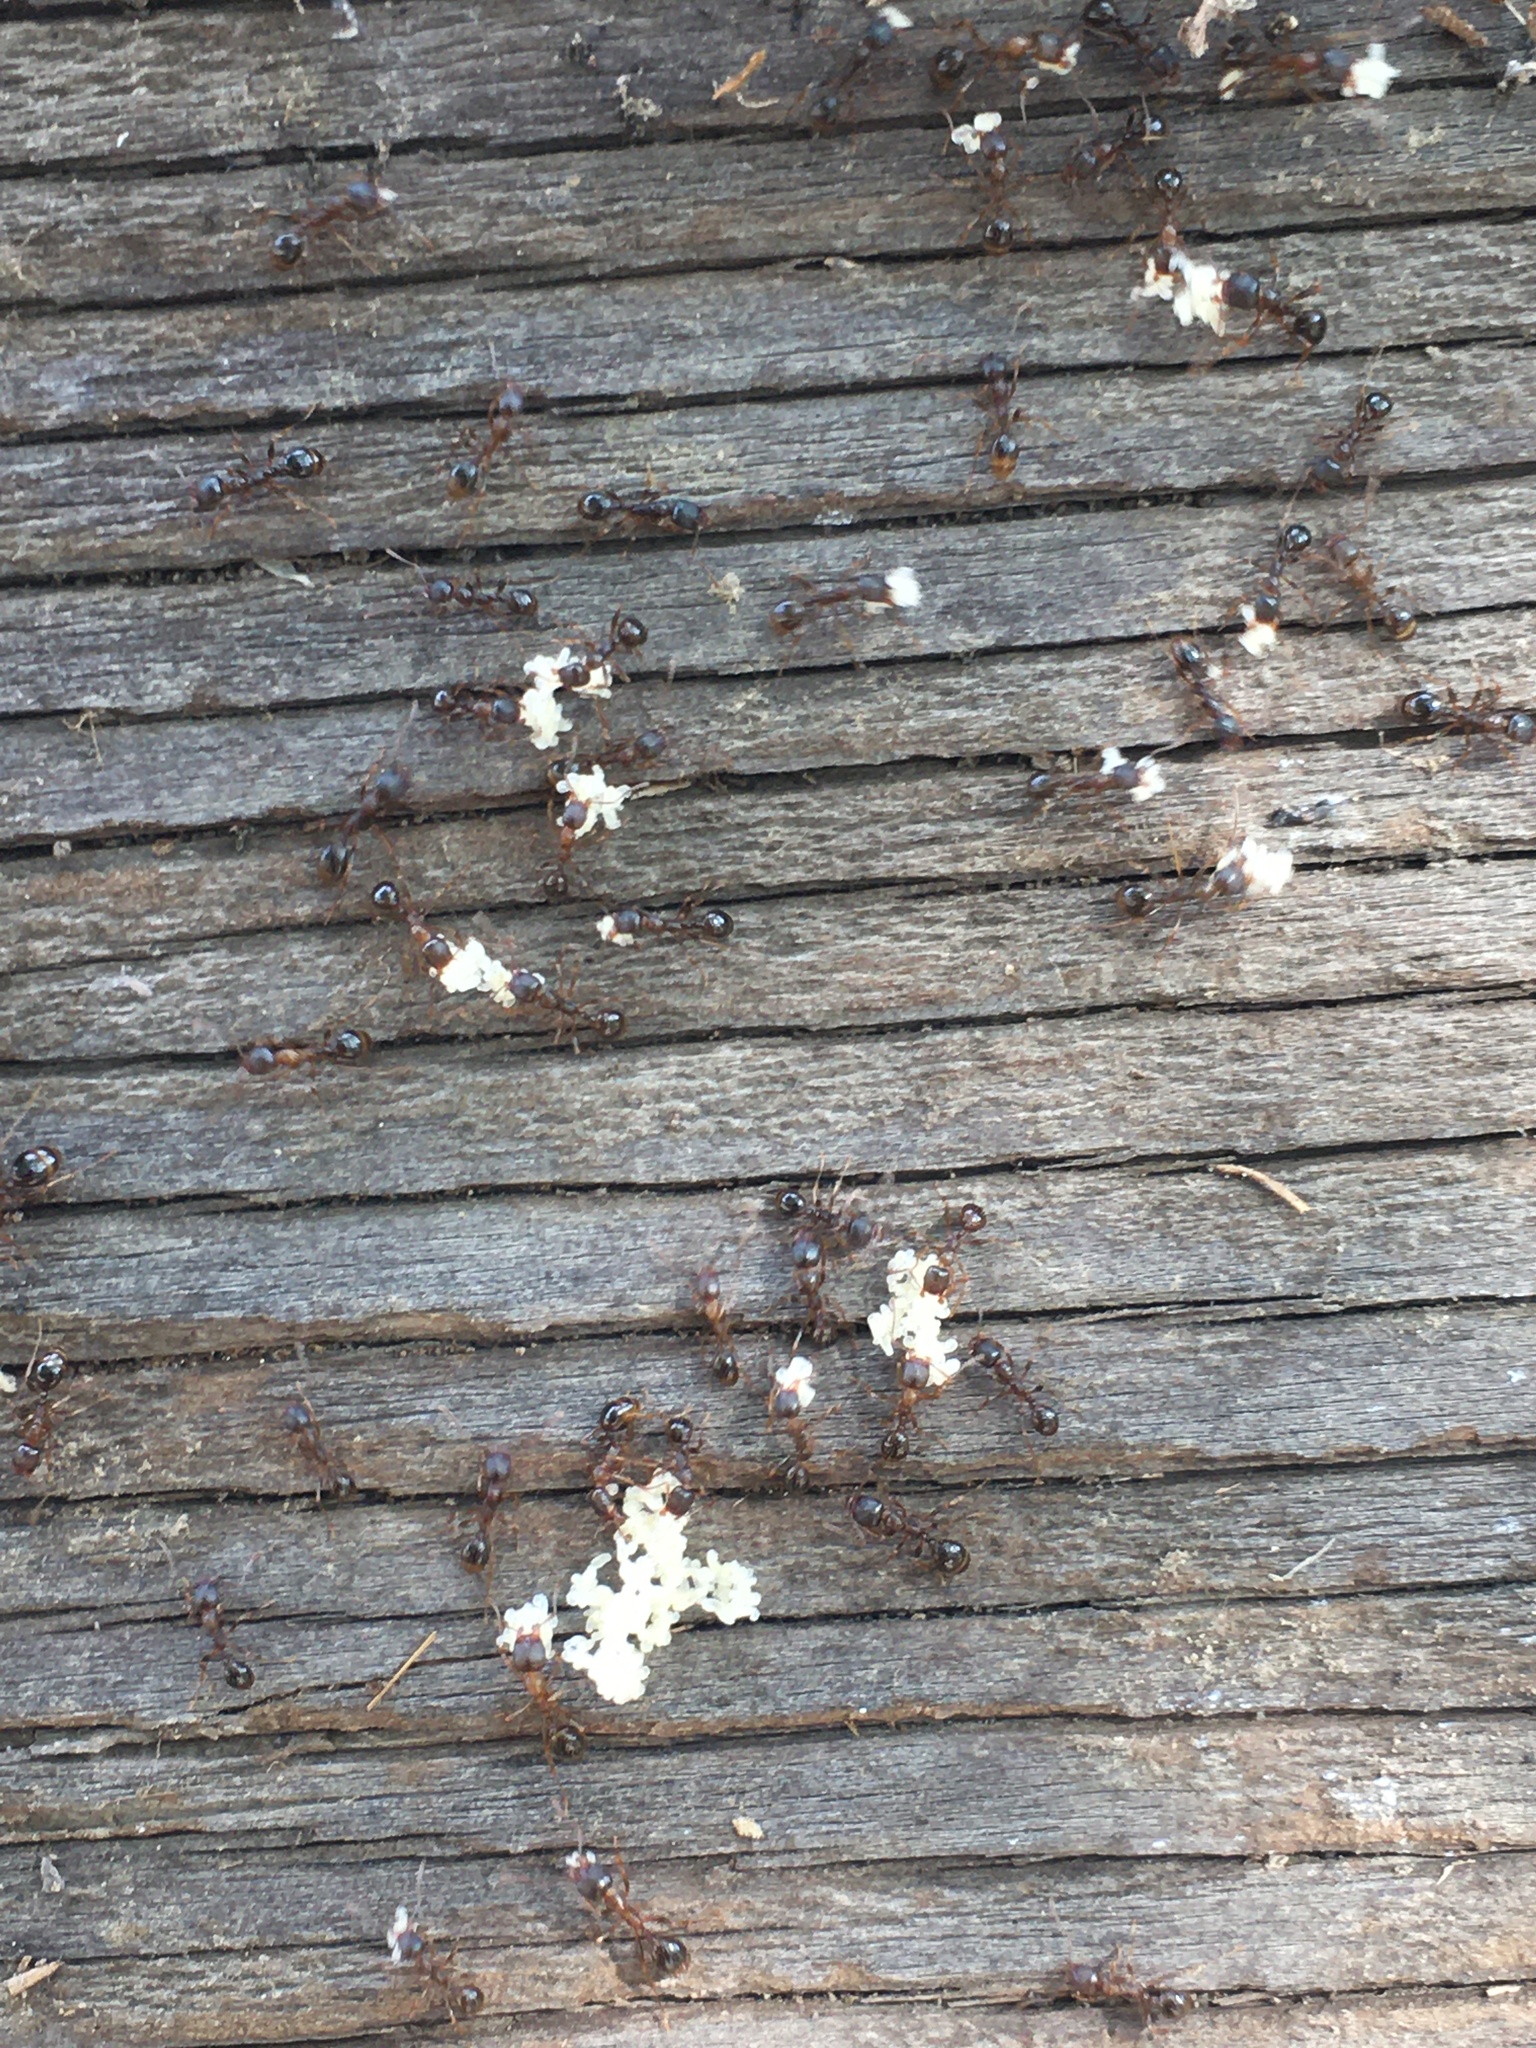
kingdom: Animalia
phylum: Arthropoda
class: Insecta
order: Hymenoptera
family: Formicidae
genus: Aphaenogaster
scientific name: Aphaenogaster occidentalis
